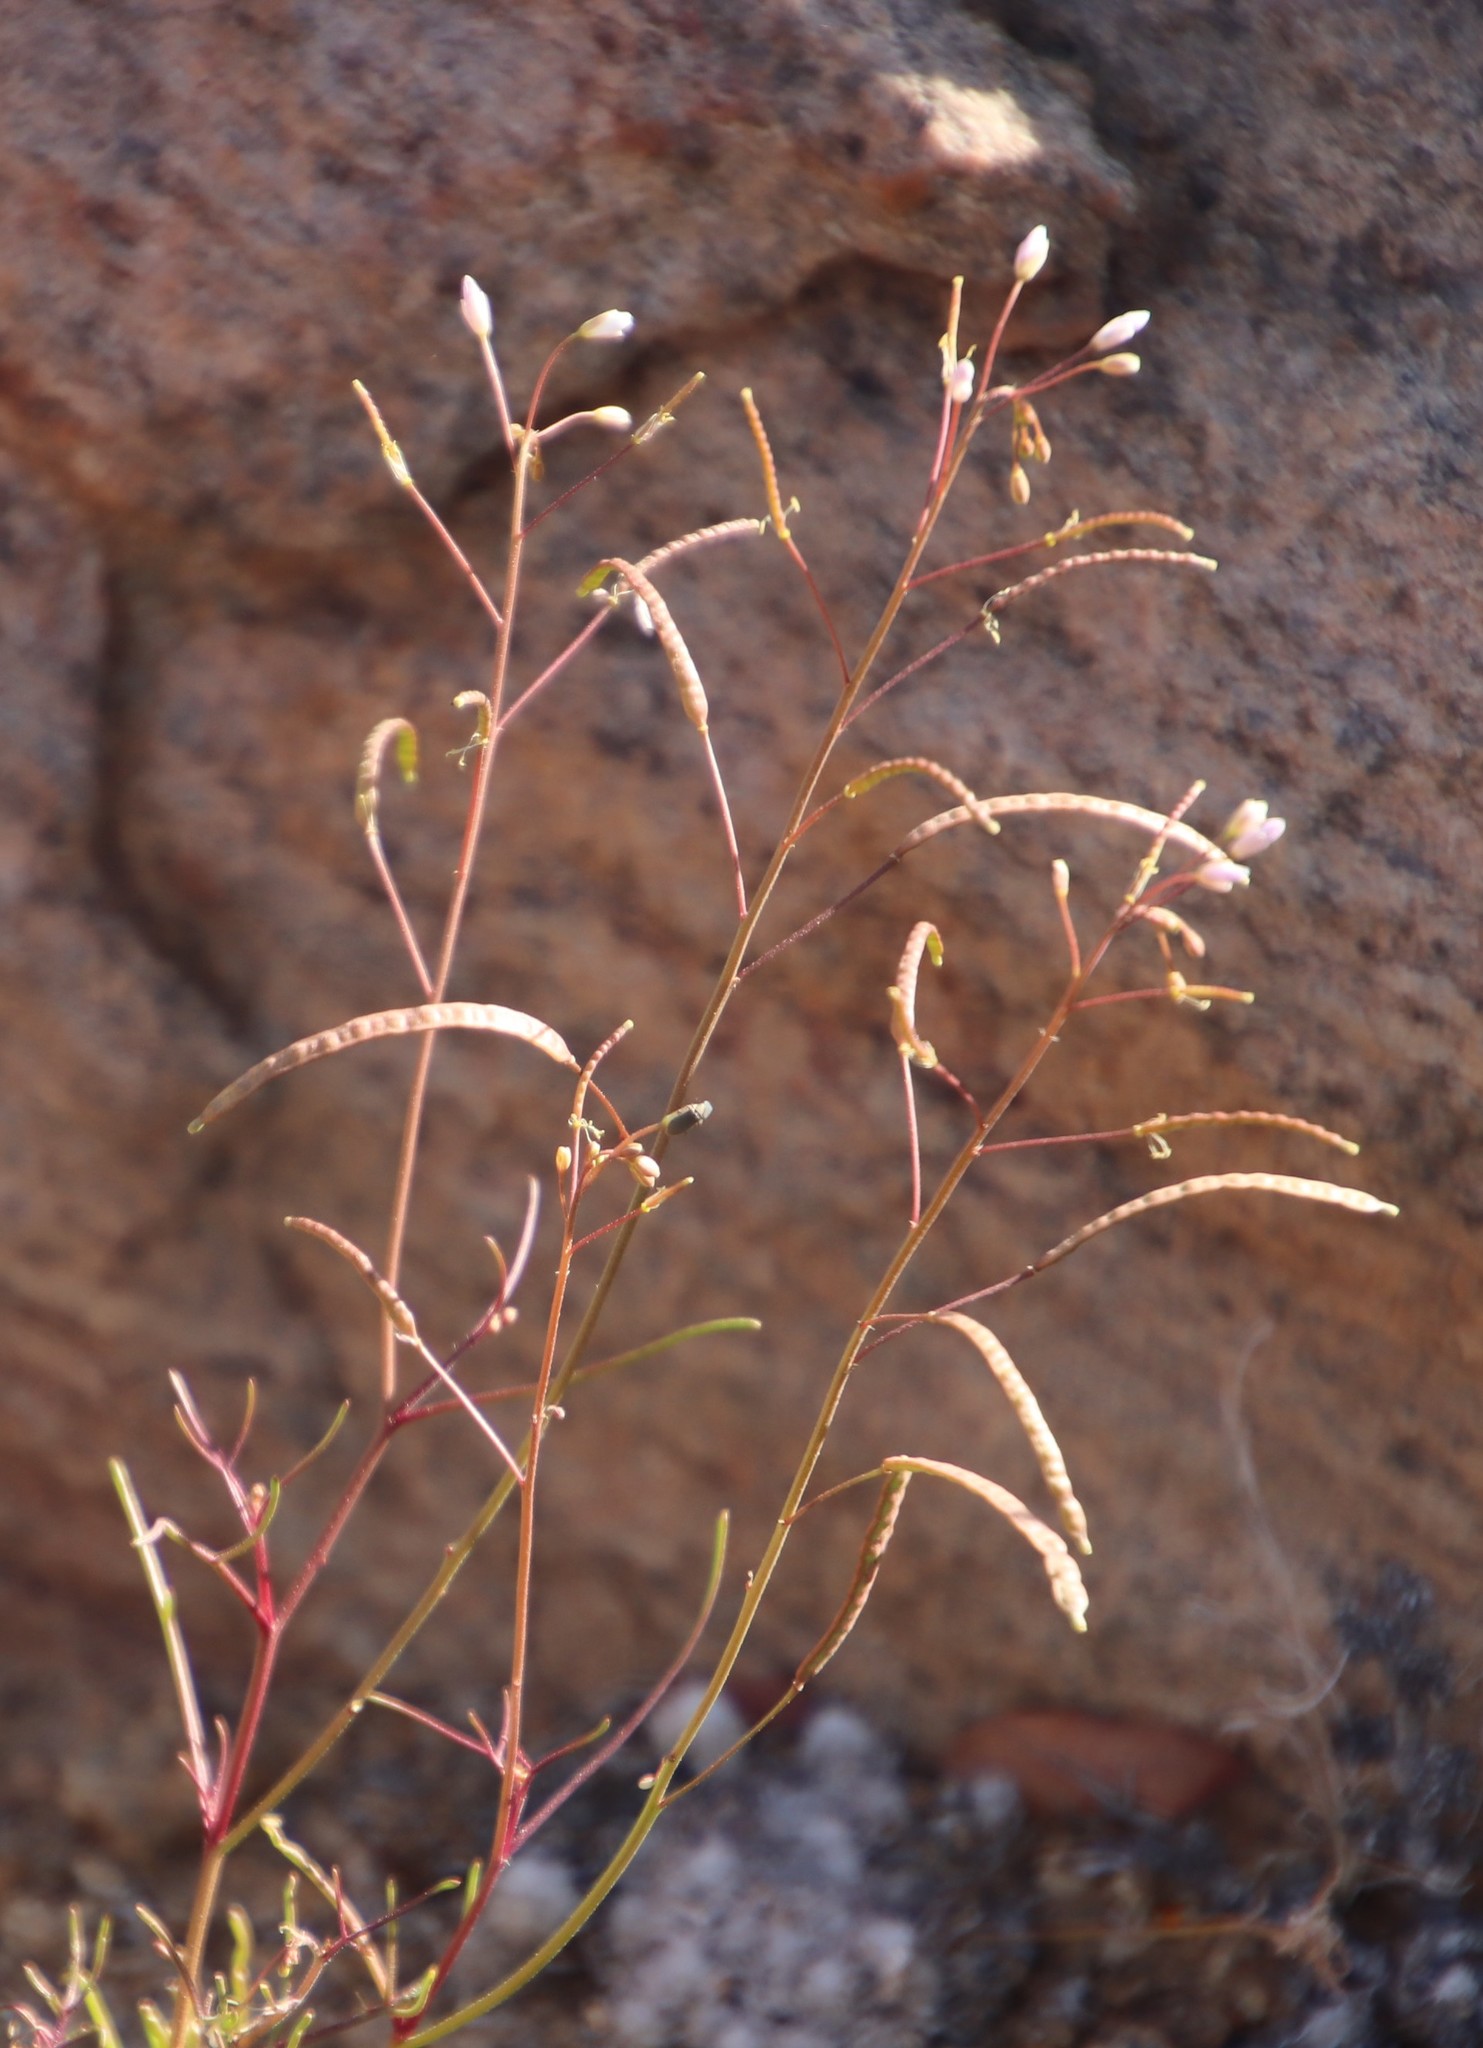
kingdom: Plantae
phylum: Tracheophyta
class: Magnoliopsida
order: Brassicales
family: Brassicaceae
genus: Heliophila
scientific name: Heliophila variabilis
